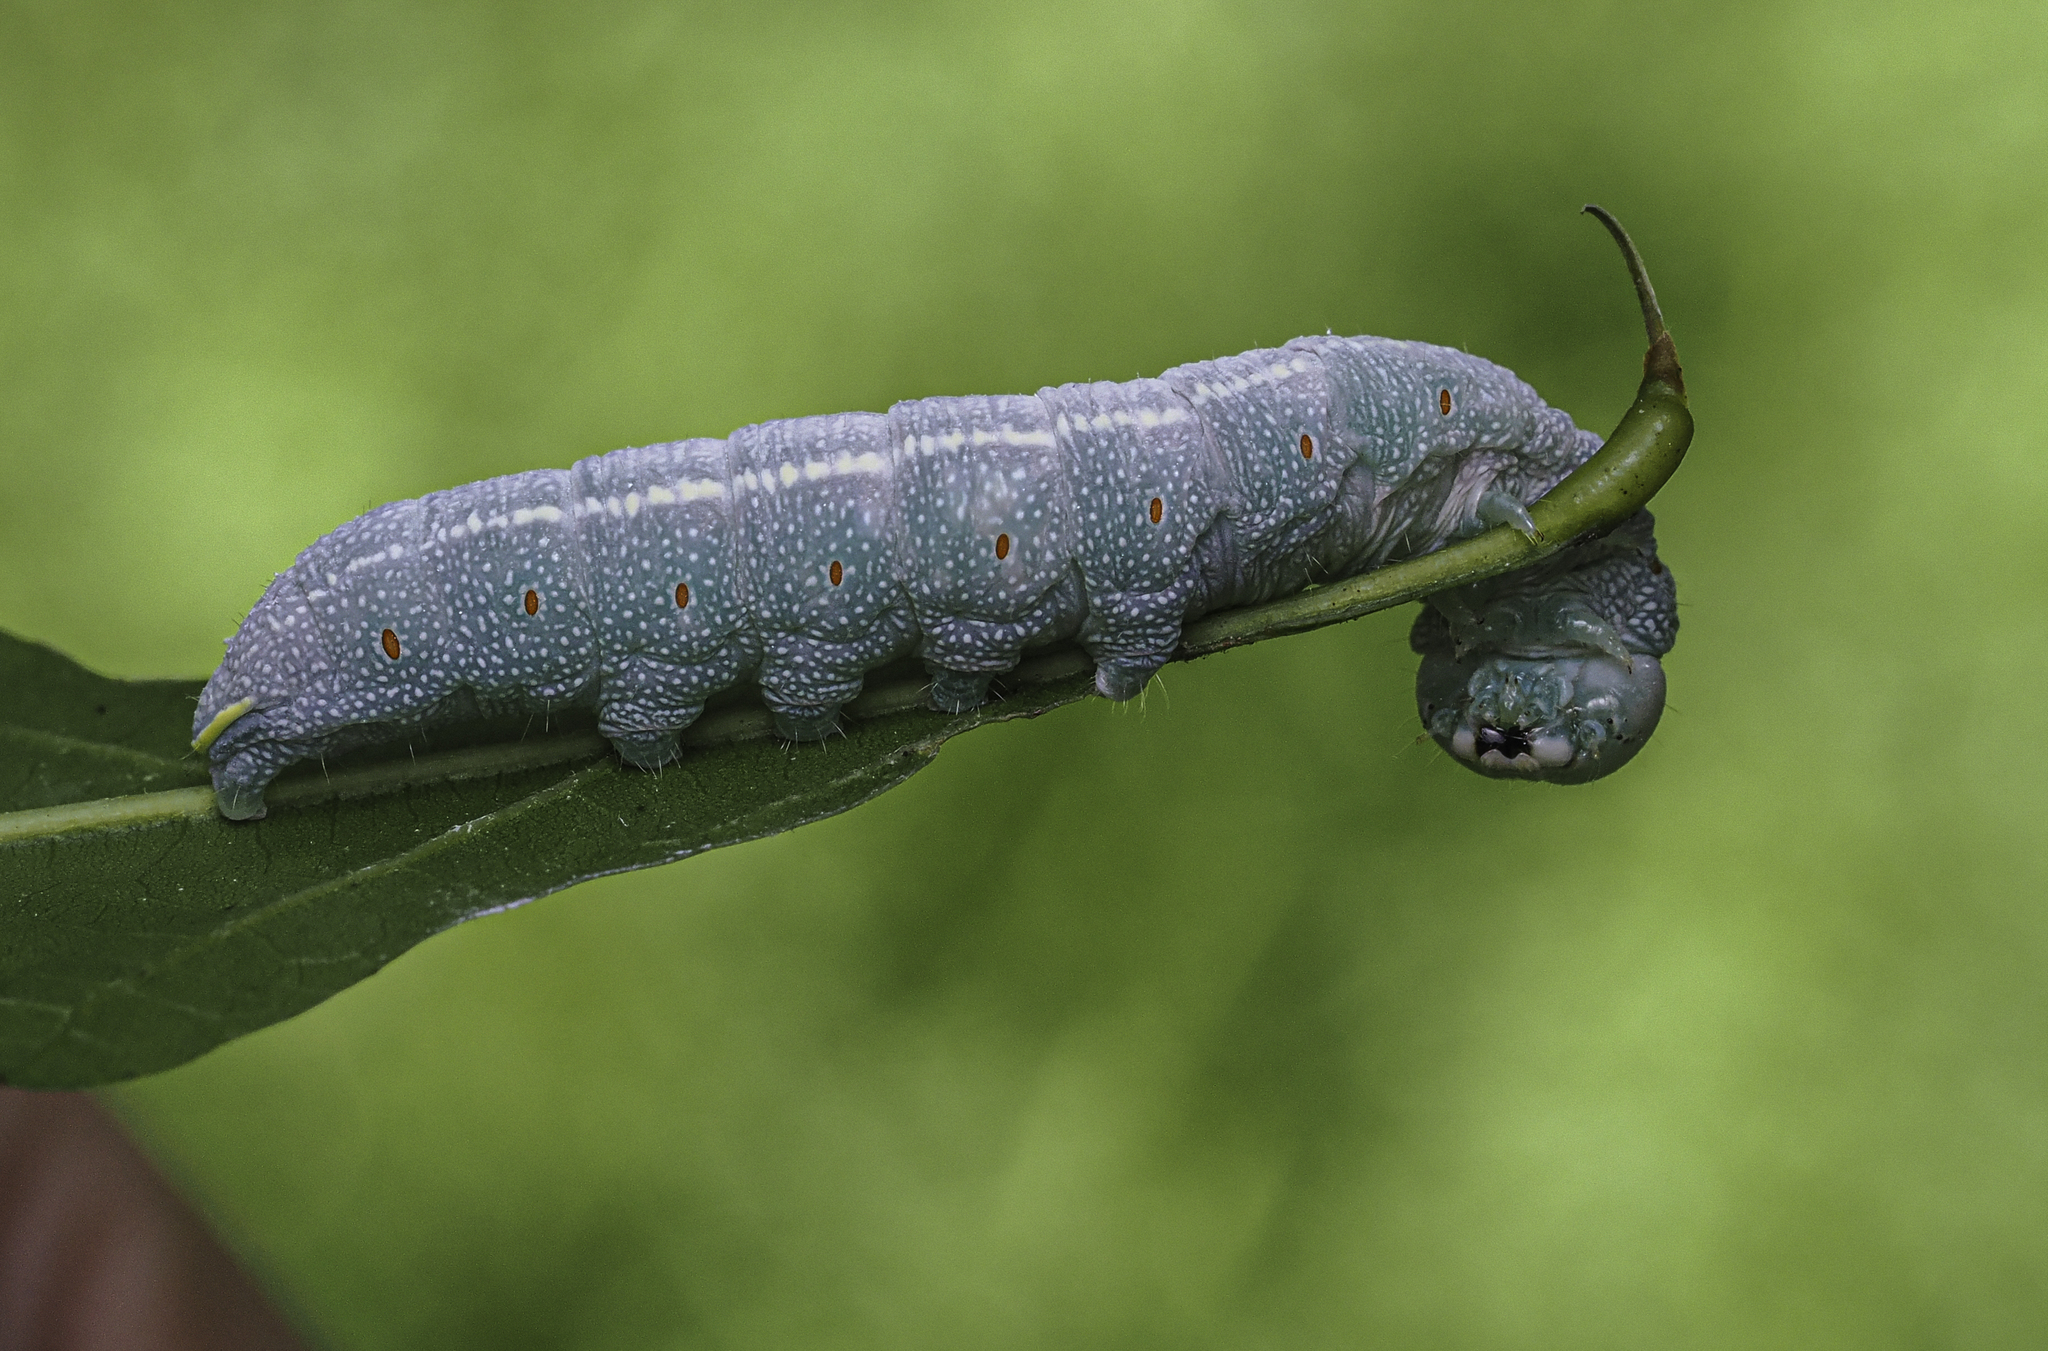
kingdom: Animalia
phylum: Arthropoda
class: Insecta
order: Lepidoptera
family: Notodontidae
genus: Nadata
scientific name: Nadata gibbosa
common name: White-dotted prominent
